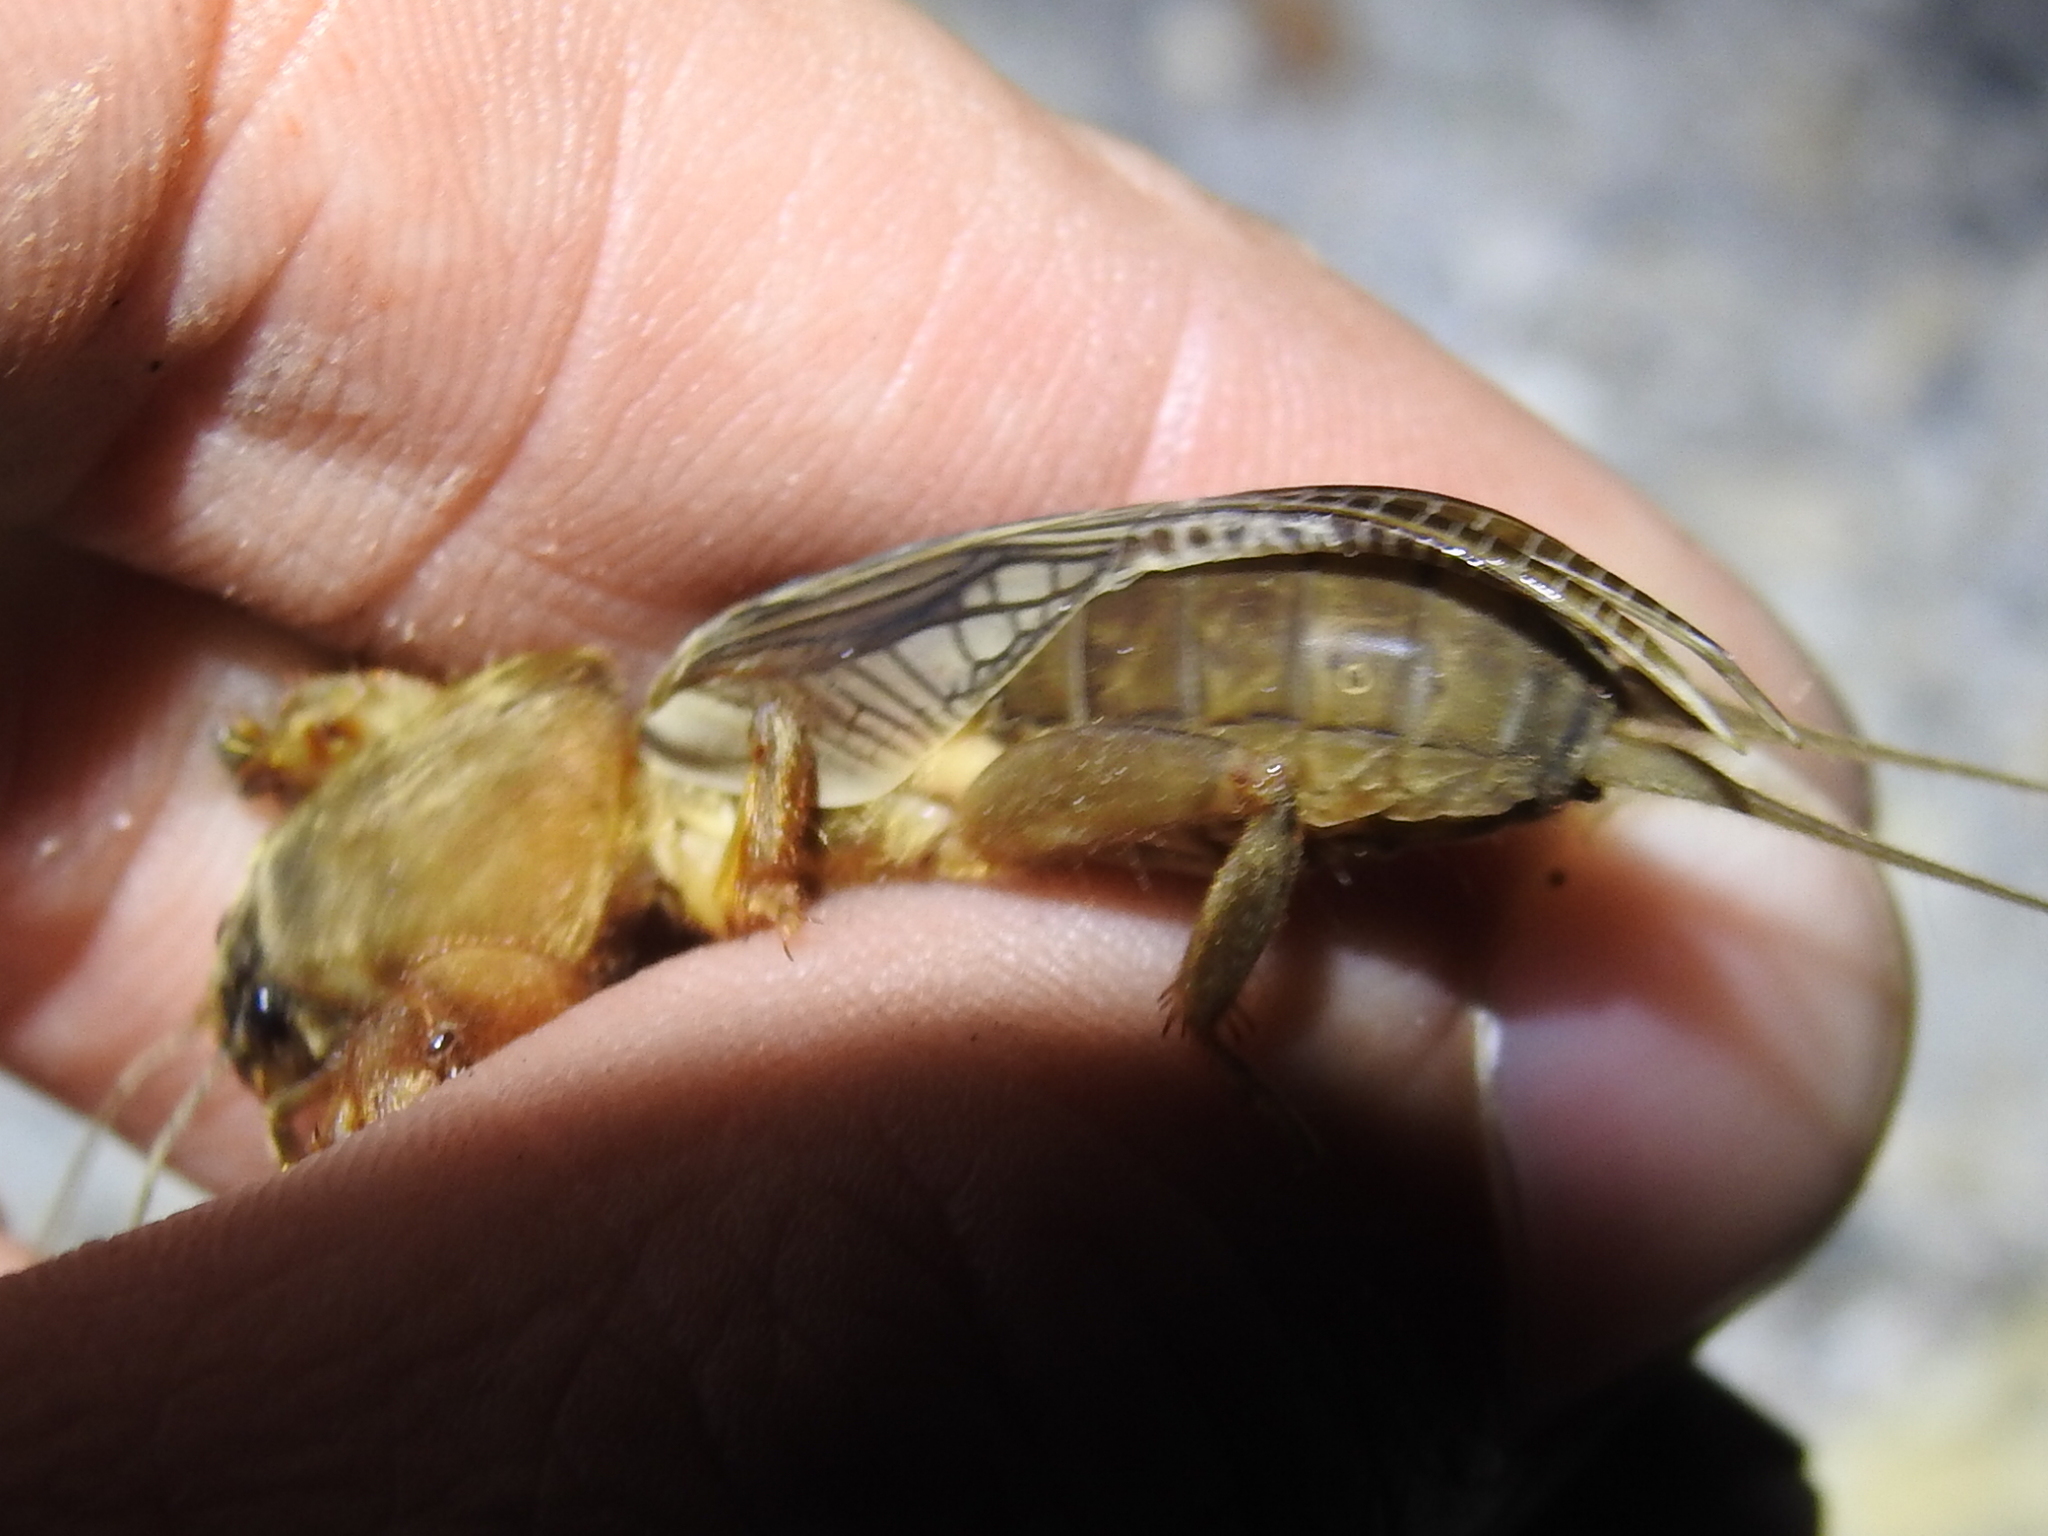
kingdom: Animalia
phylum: Arthropoda
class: Insecta
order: Orthoptera
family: Gryllotalpidae
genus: Neocurtilla
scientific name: Neocurtilla hexadactyla
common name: Northern mole cricket
